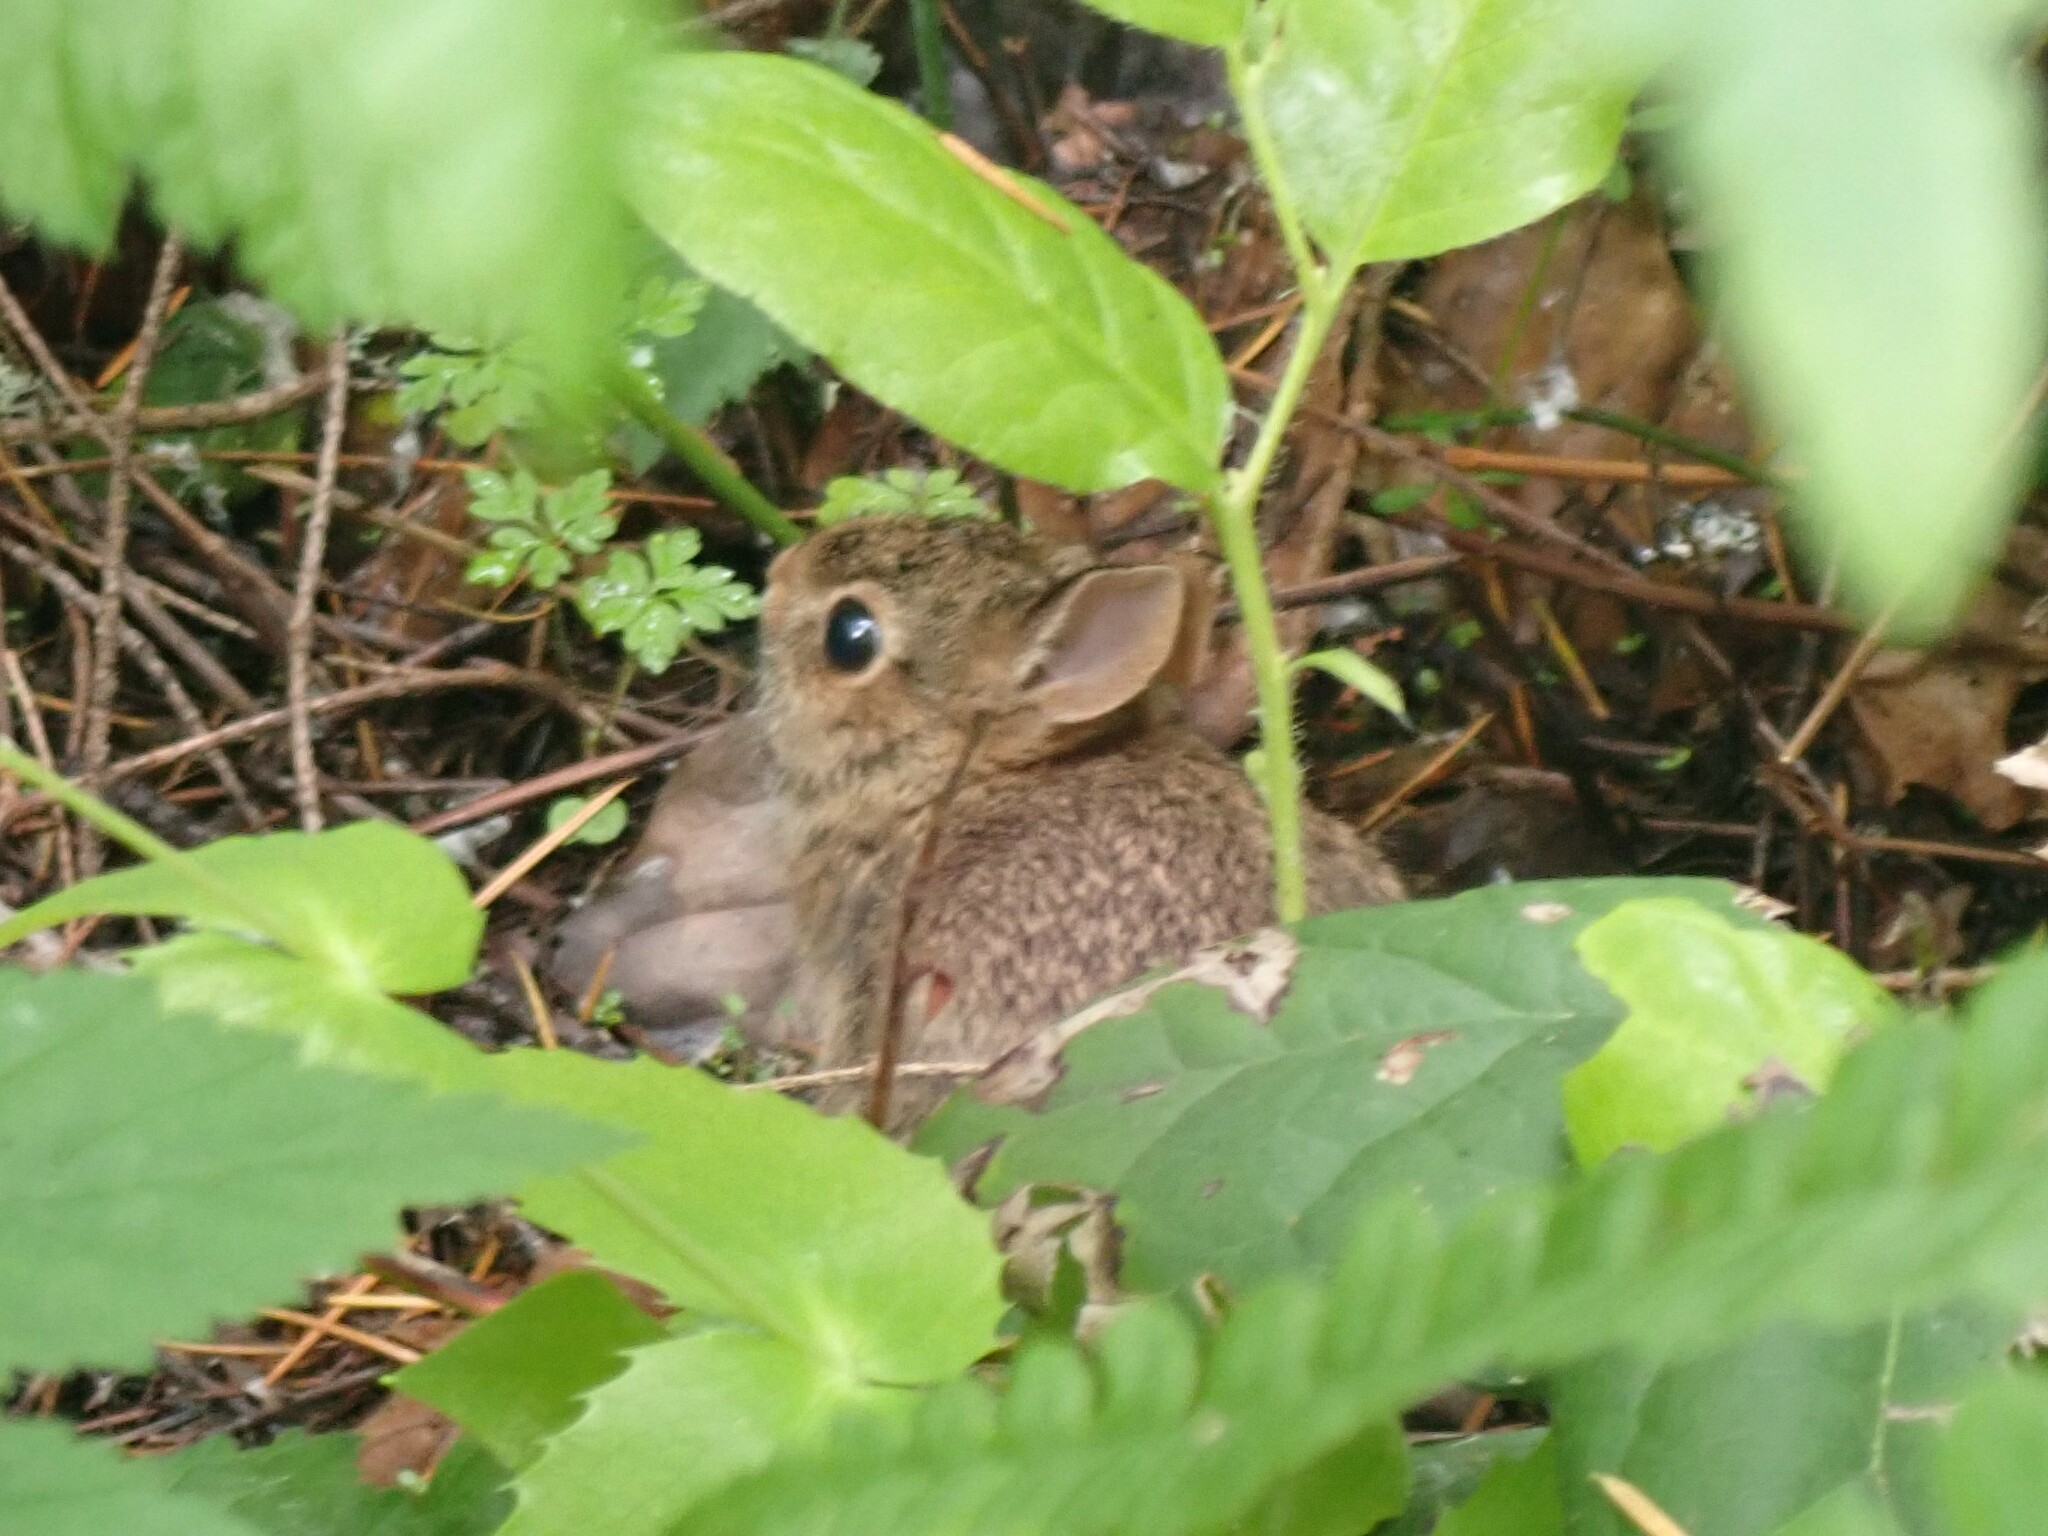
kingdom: Animalia
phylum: Chordata
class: Mammalia
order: Lagomorpha
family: Leporidae
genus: Sylvilagus
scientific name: Sylvilagus floridanus
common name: Eastern cottontail
